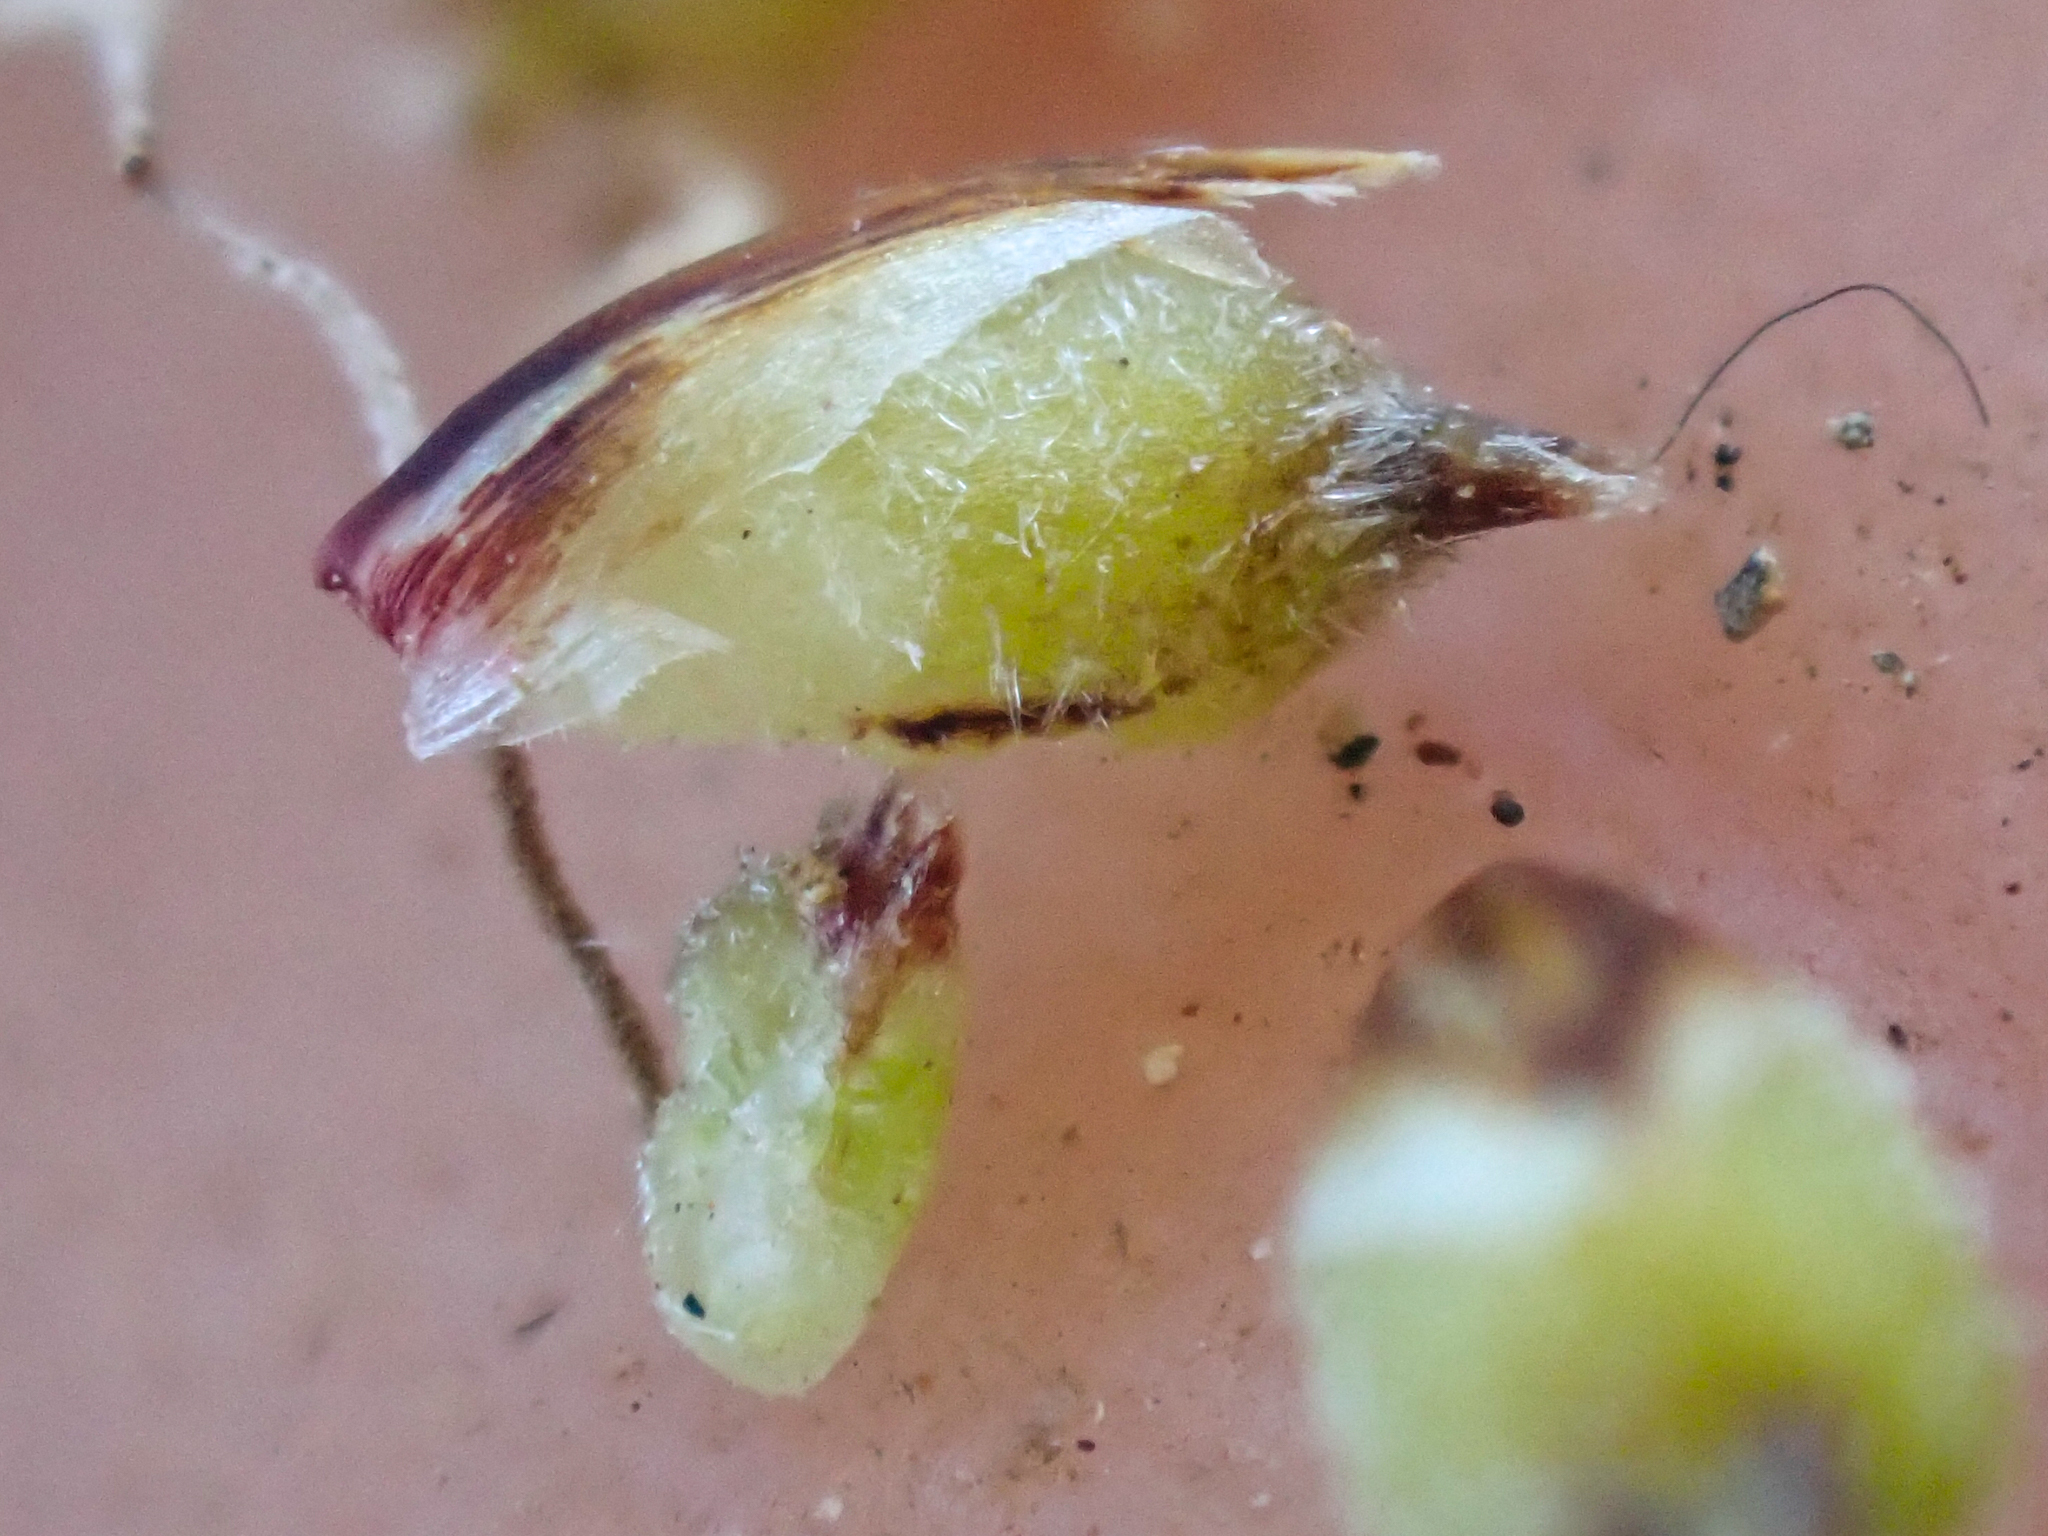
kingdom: Plantae
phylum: Tracheophyta
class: Liliopsida
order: Poales
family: Cyperaceae
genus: Carex
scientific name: Carex concinnoides
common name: Northwest sedge
